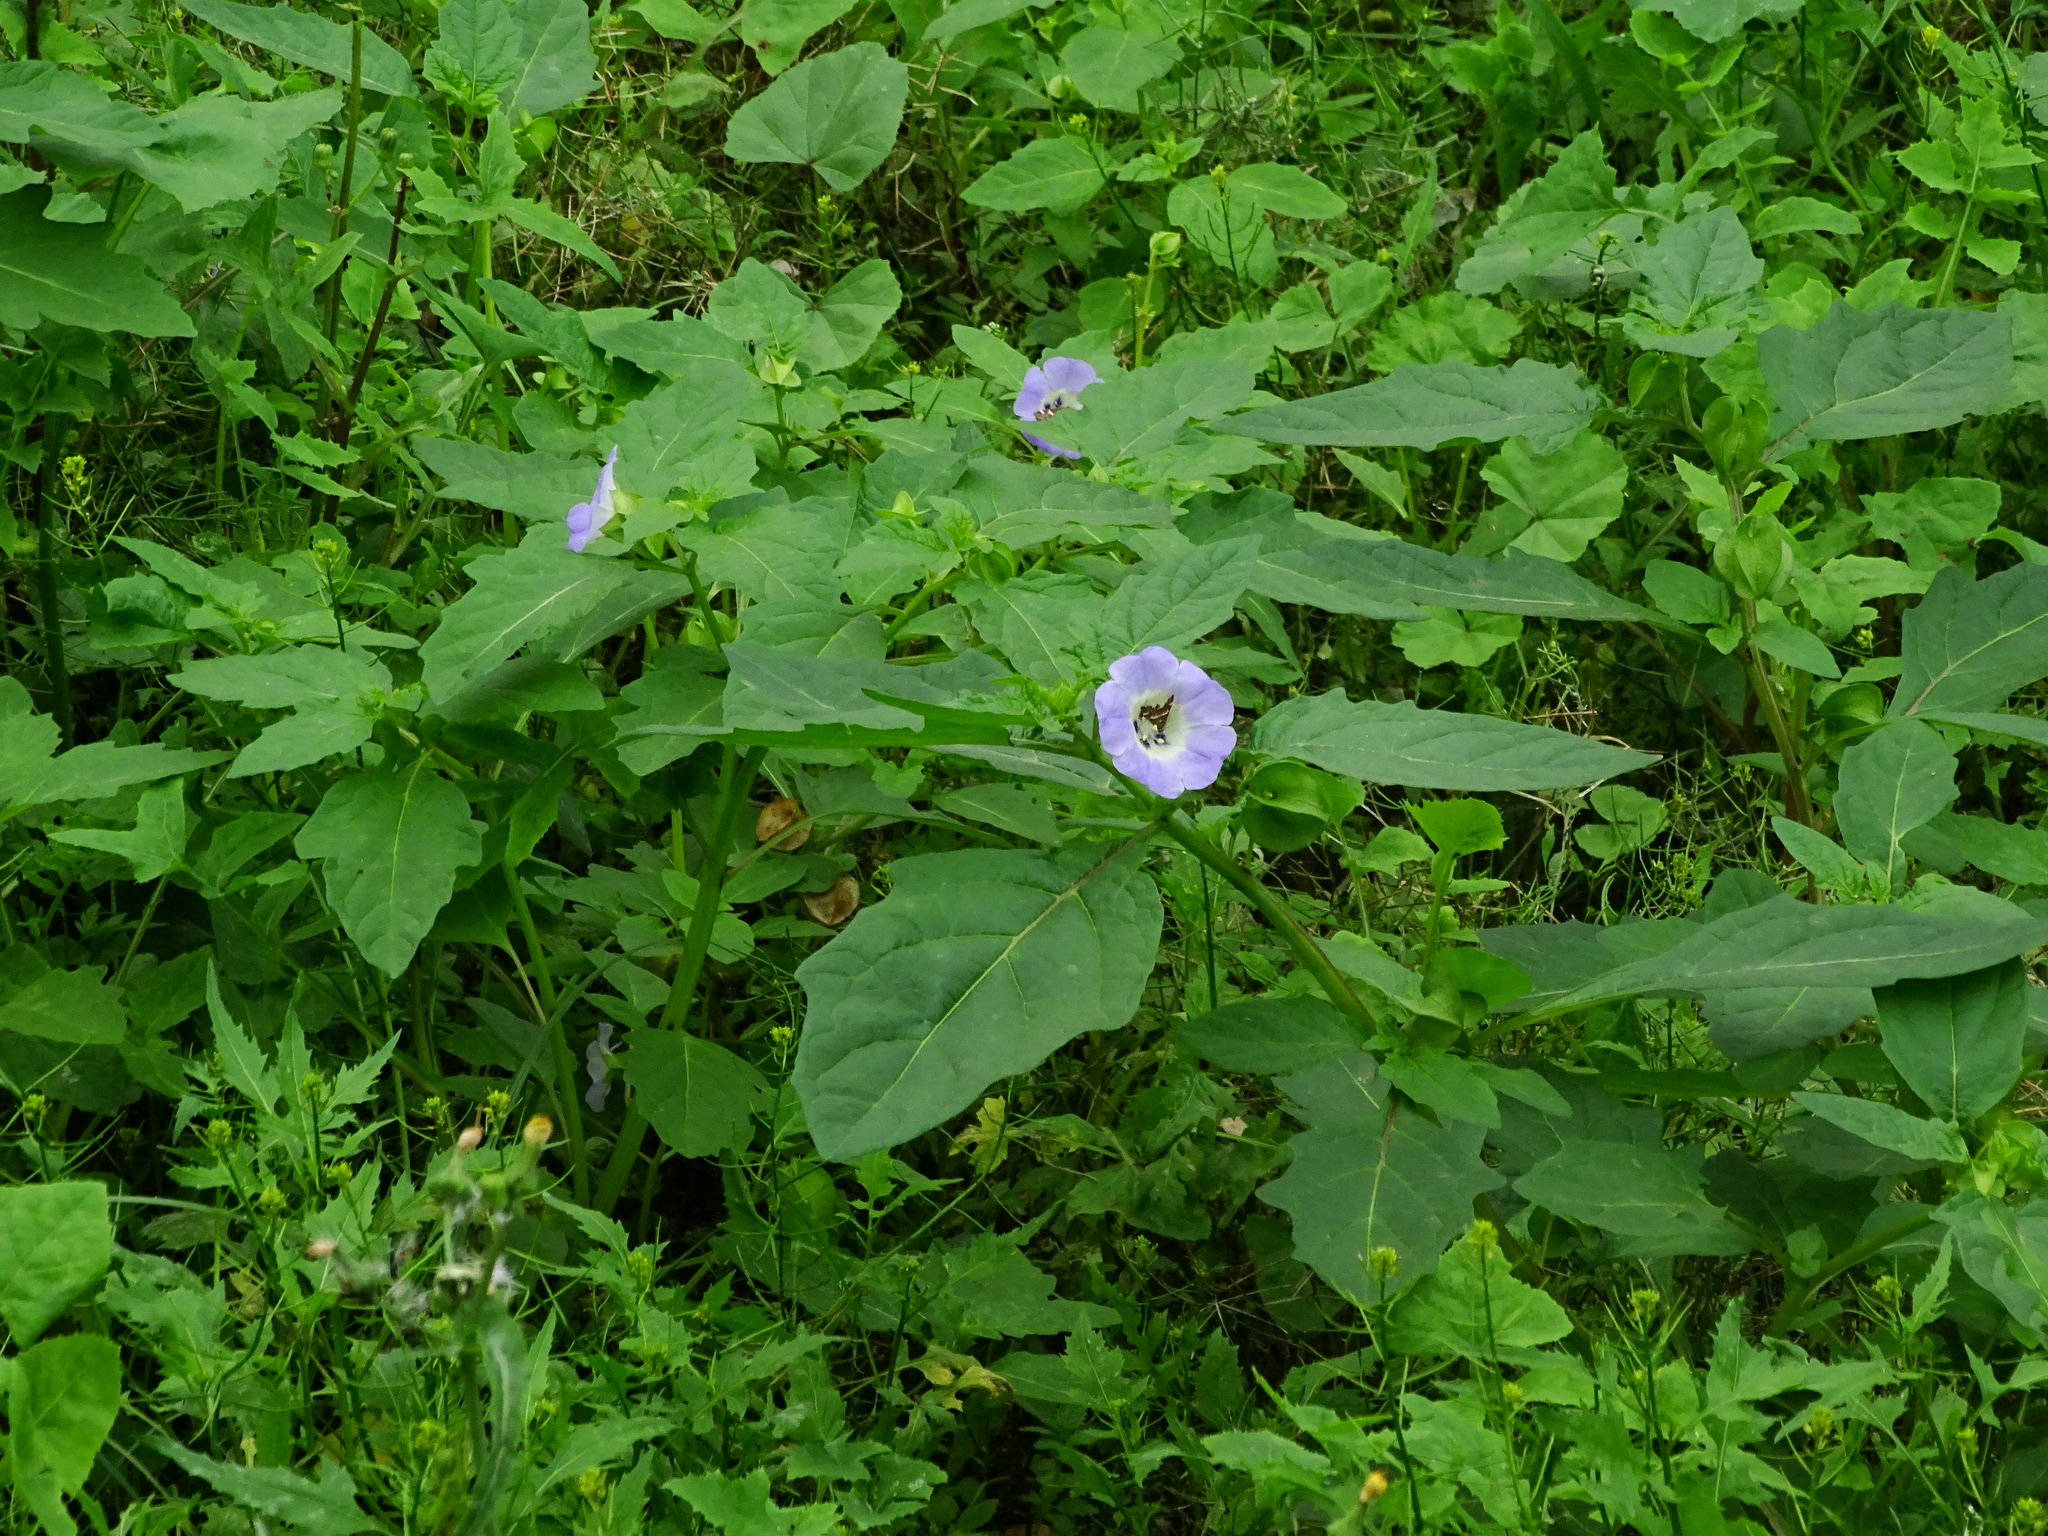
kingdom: Plantae
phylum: Tracheophyta
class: Magnoliopsida
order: Solanales
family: Solanaceae
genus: Nicandra
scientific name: Nicandra physalodes
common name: Apple-of-peru
